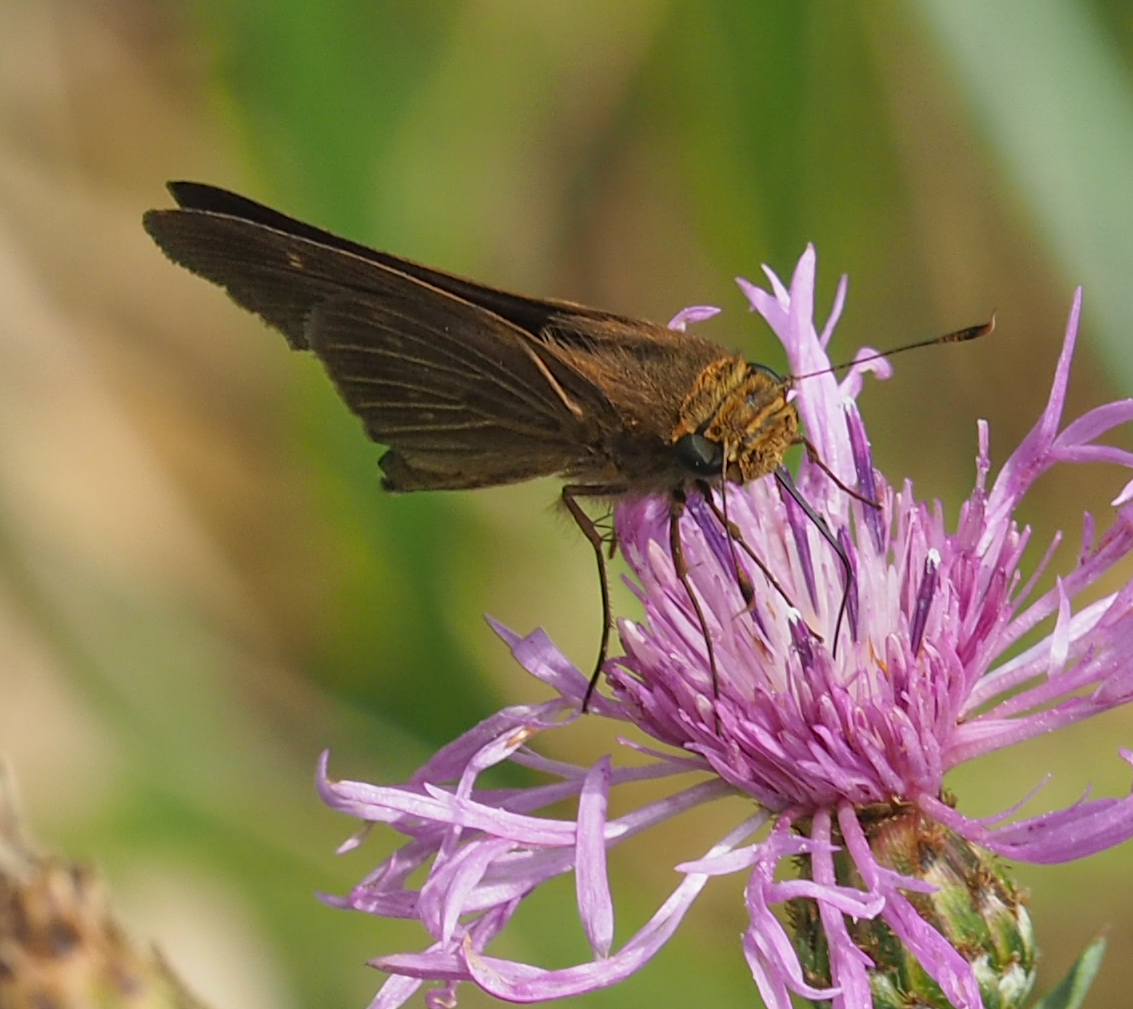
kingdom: Animalia
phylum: Arthropoda
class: Insecta
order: Lepidoptera
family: Hesperiidae
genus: Panoquina
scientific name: Panoquina ocola
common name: Ocola skipper
